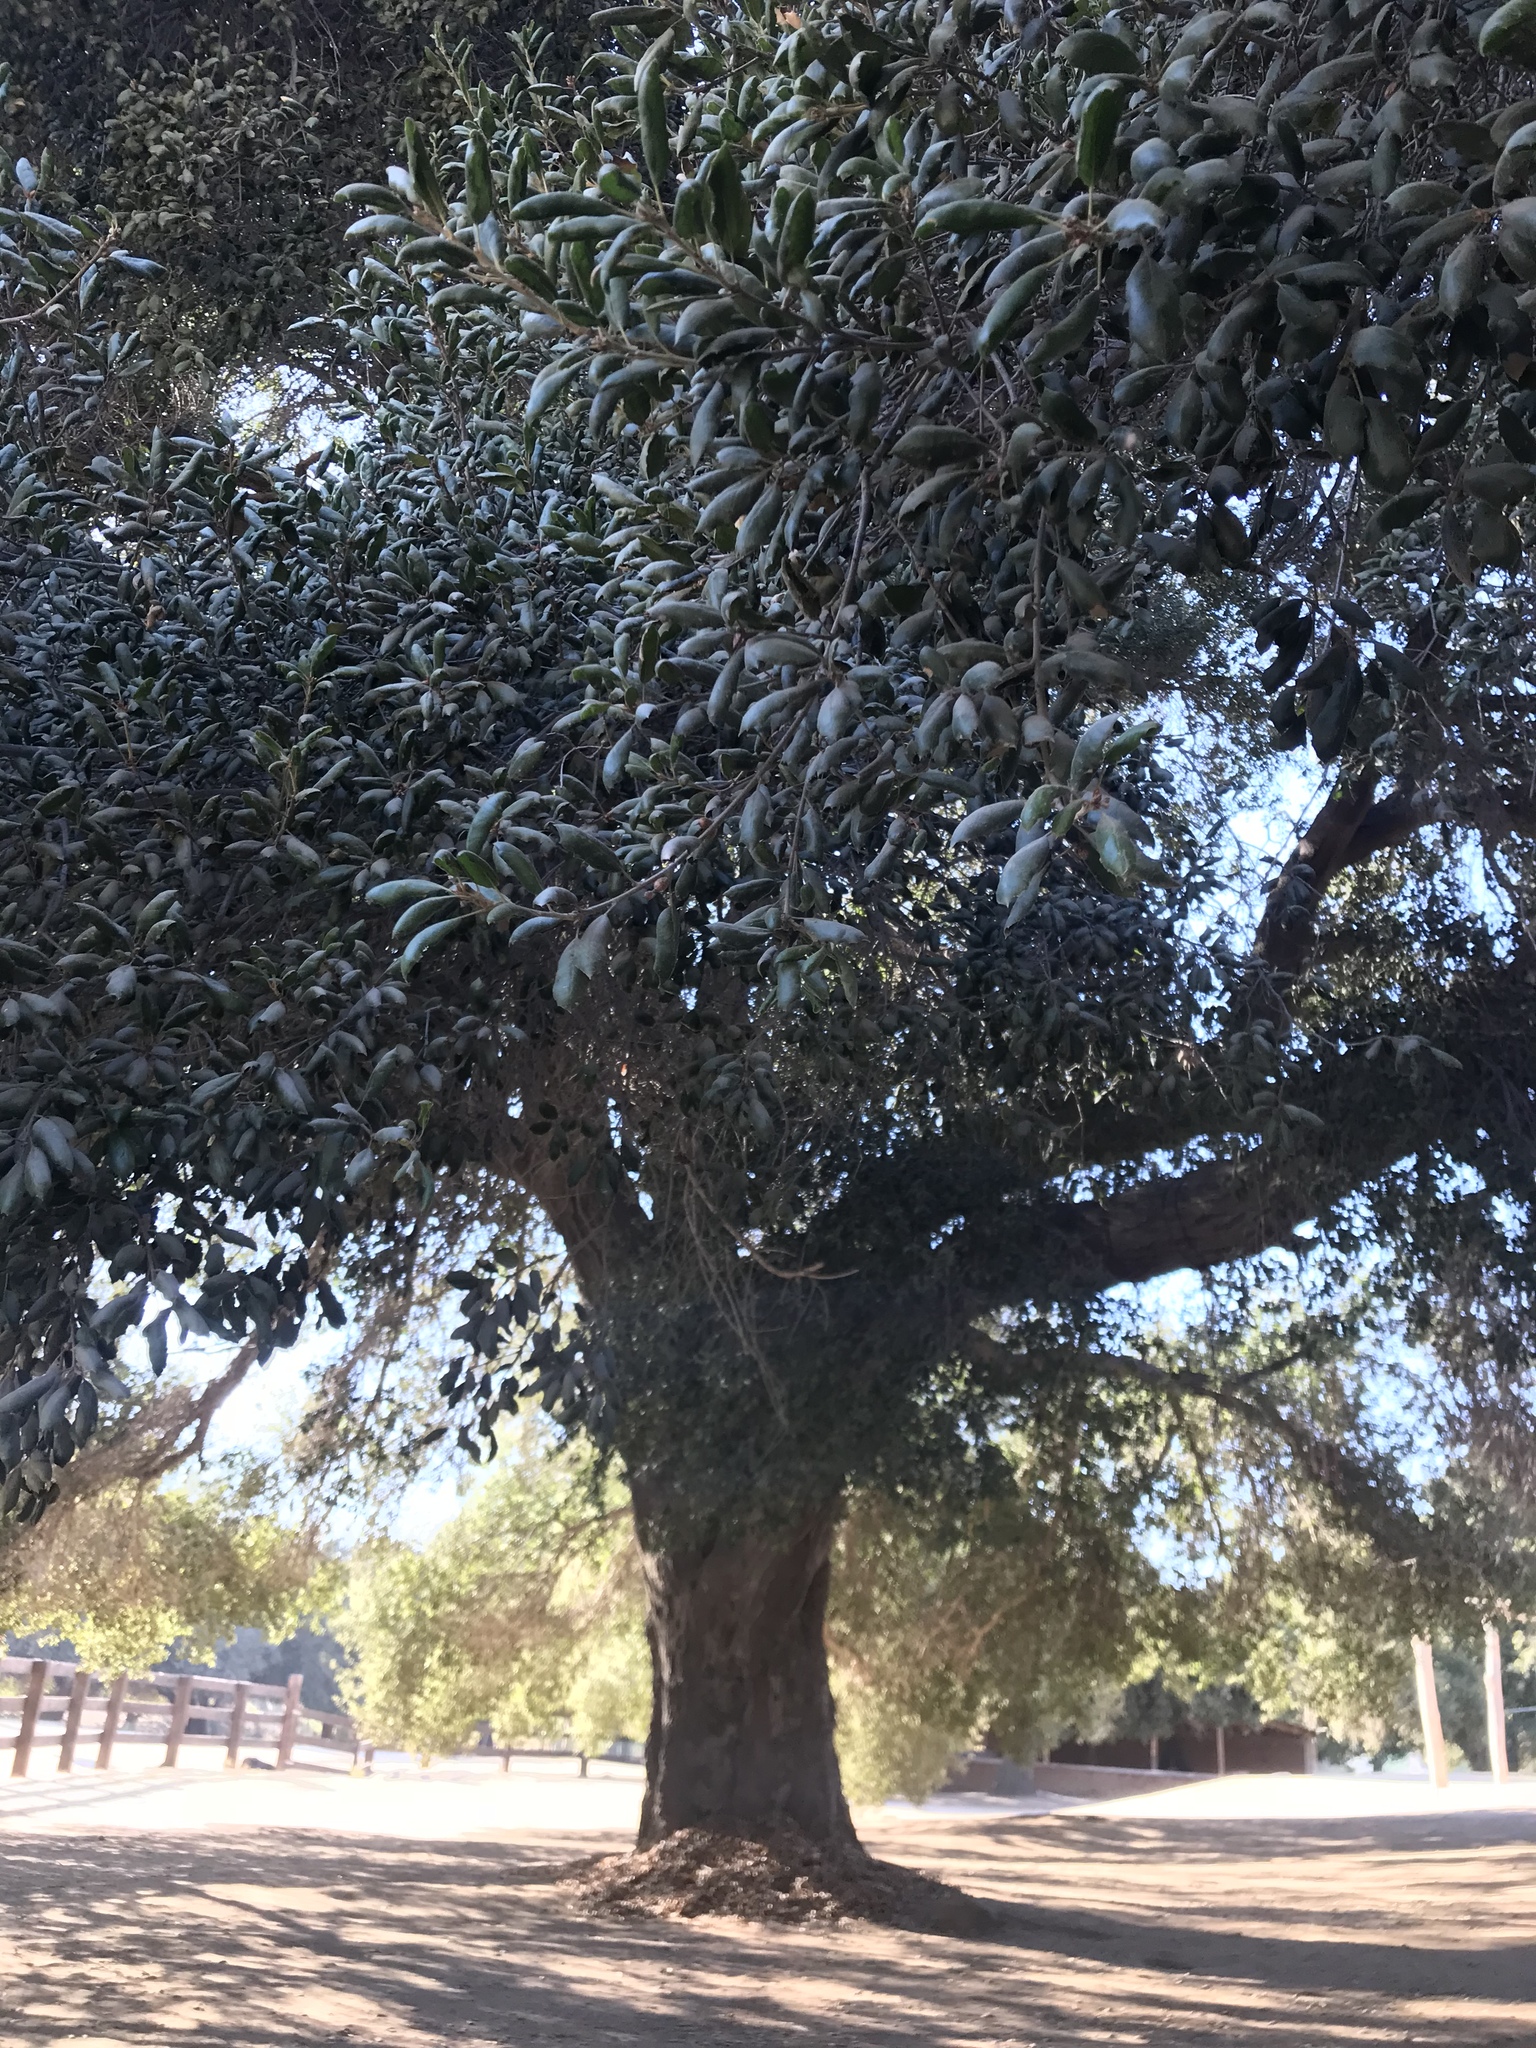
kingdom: Plantae
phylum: Tracheophyta
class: Magnoliopsida
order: Fagales
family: Fagaceae
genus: Quercus
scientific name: Quercus agrifolia
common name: California live oak
